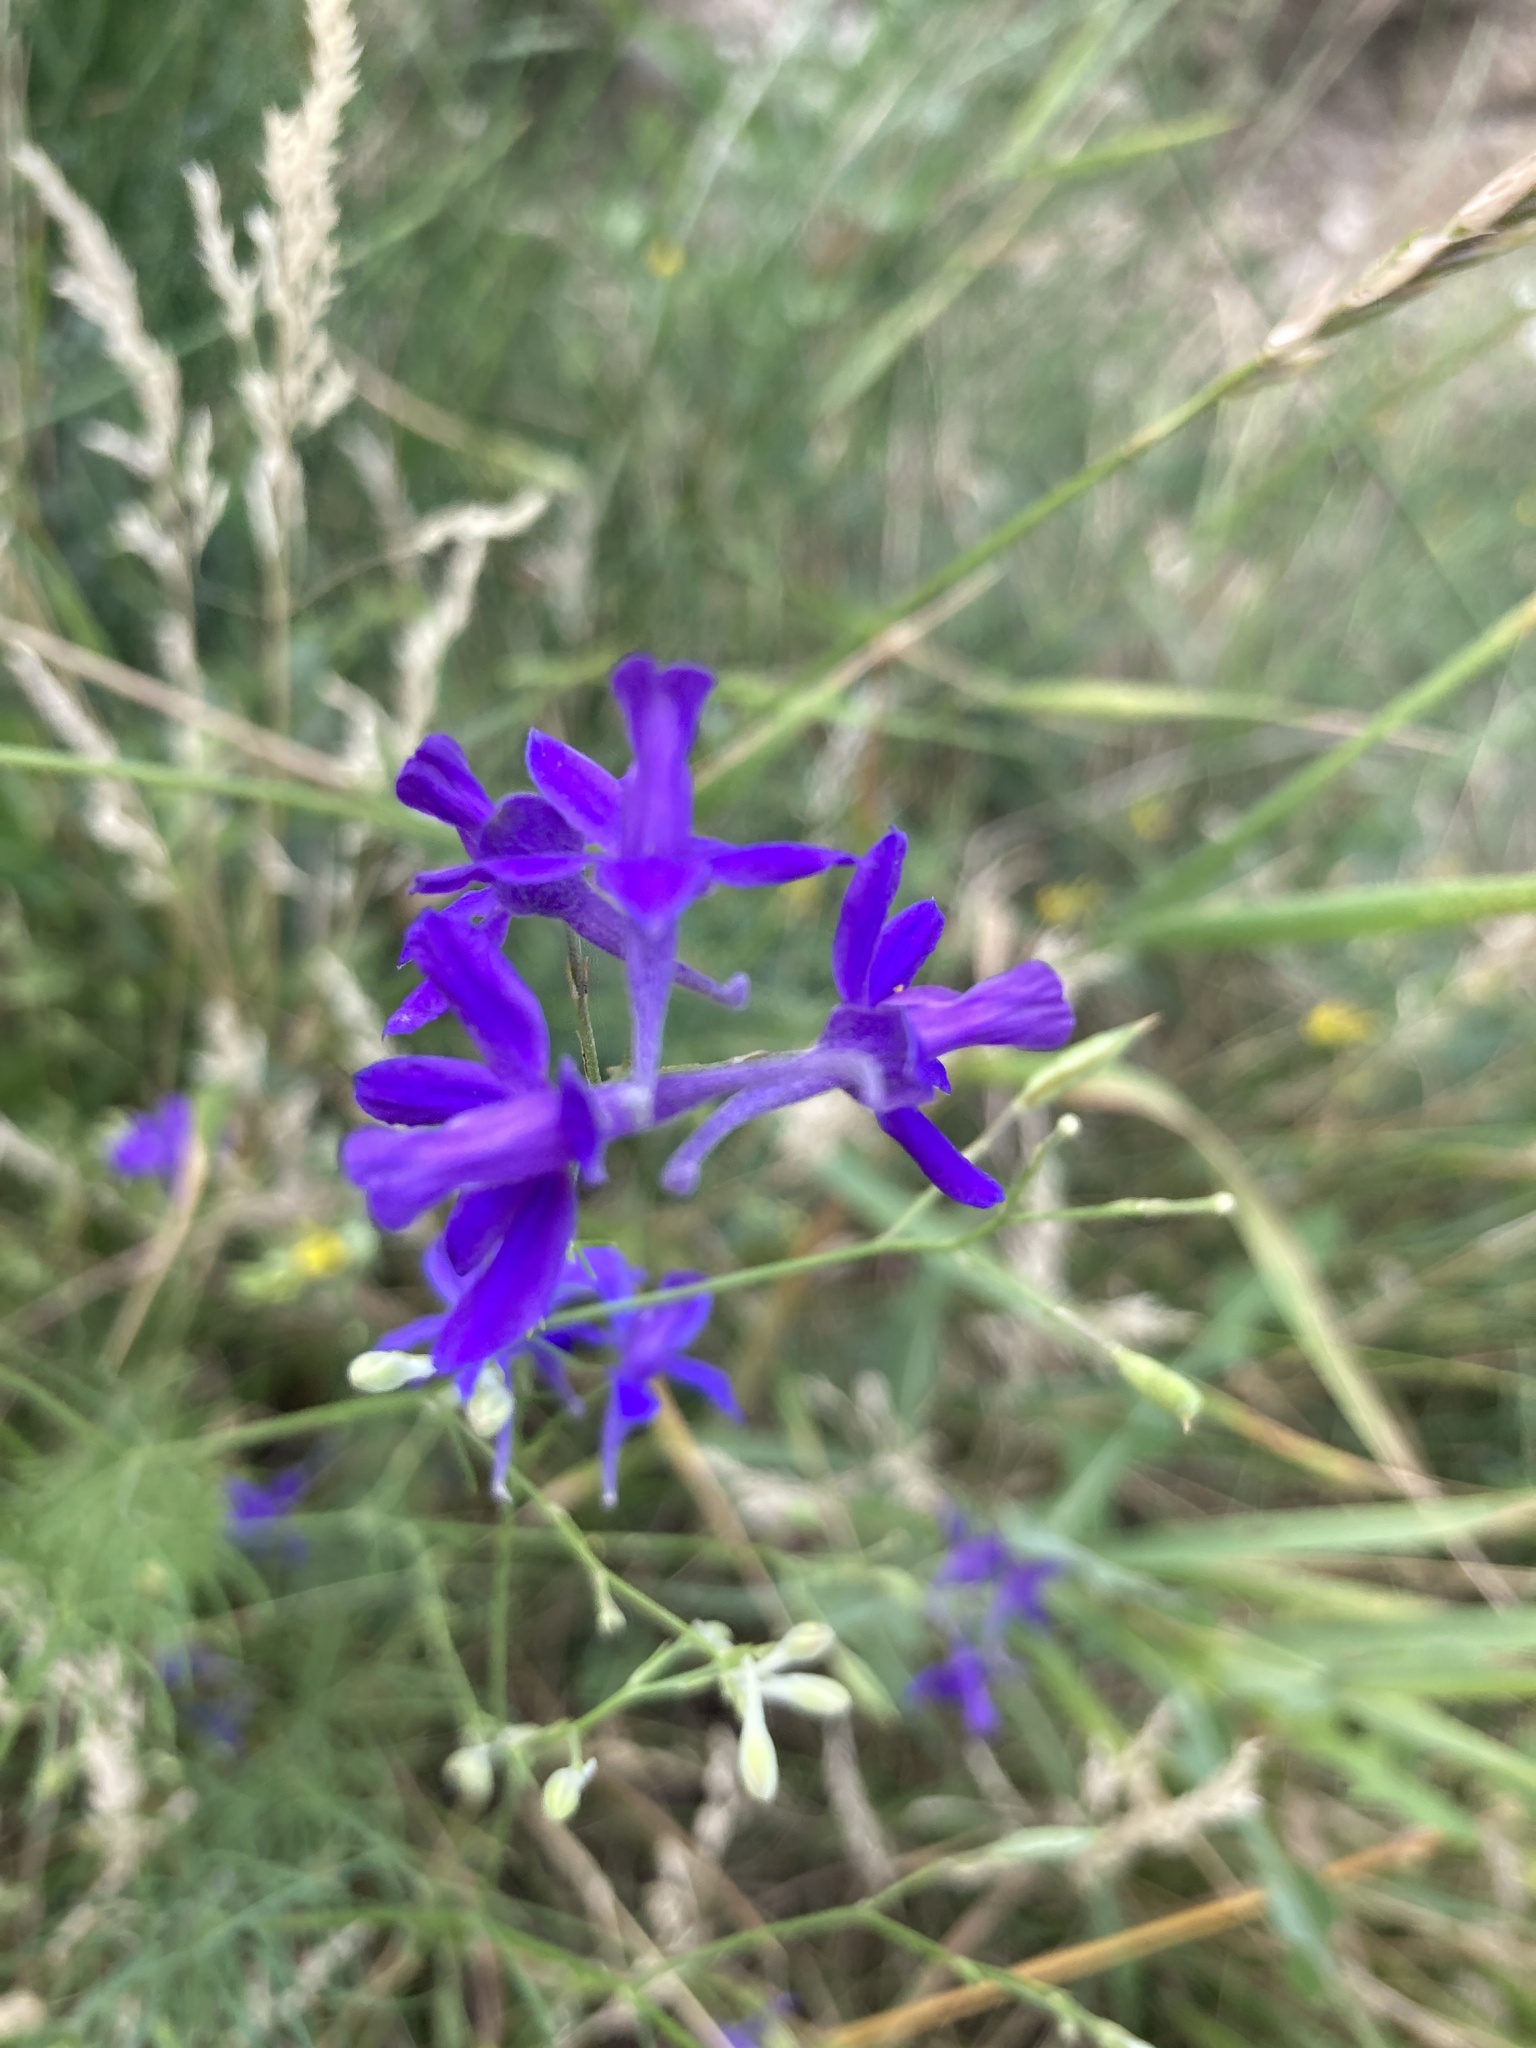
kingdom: Plantae
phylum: Tracheophyta
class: Magnoliopsida
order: Ranunculales
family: Ranunculaceae
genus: Delphinium
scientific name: Delphinium consolida
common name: Branching larkspur
